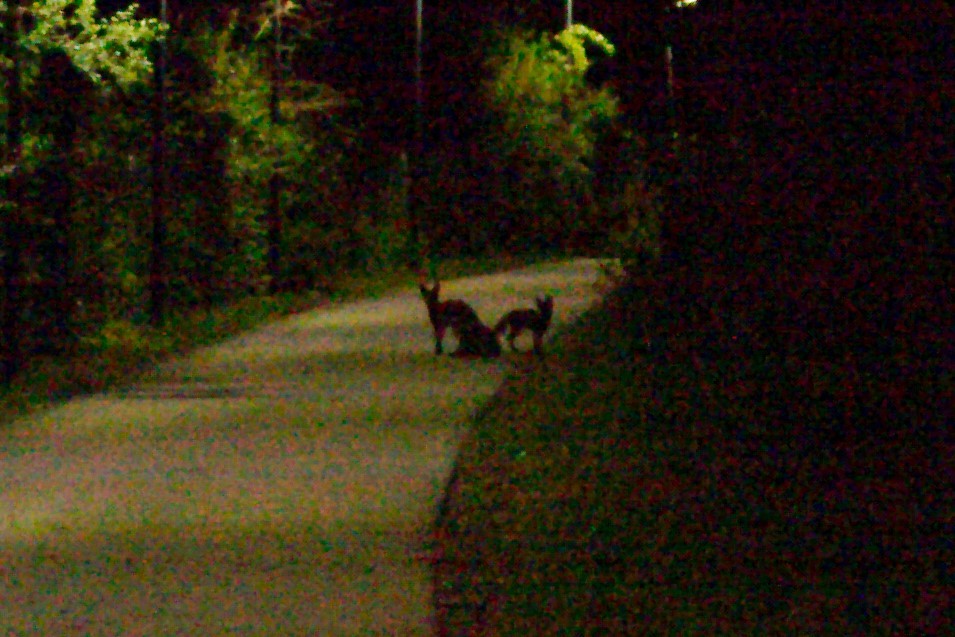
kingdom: Animalia
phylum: Chordata
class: Mammalia
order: Carnivora
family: Canidae
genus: Vulpes
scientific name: Vulpes vulpes
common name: Red fox
